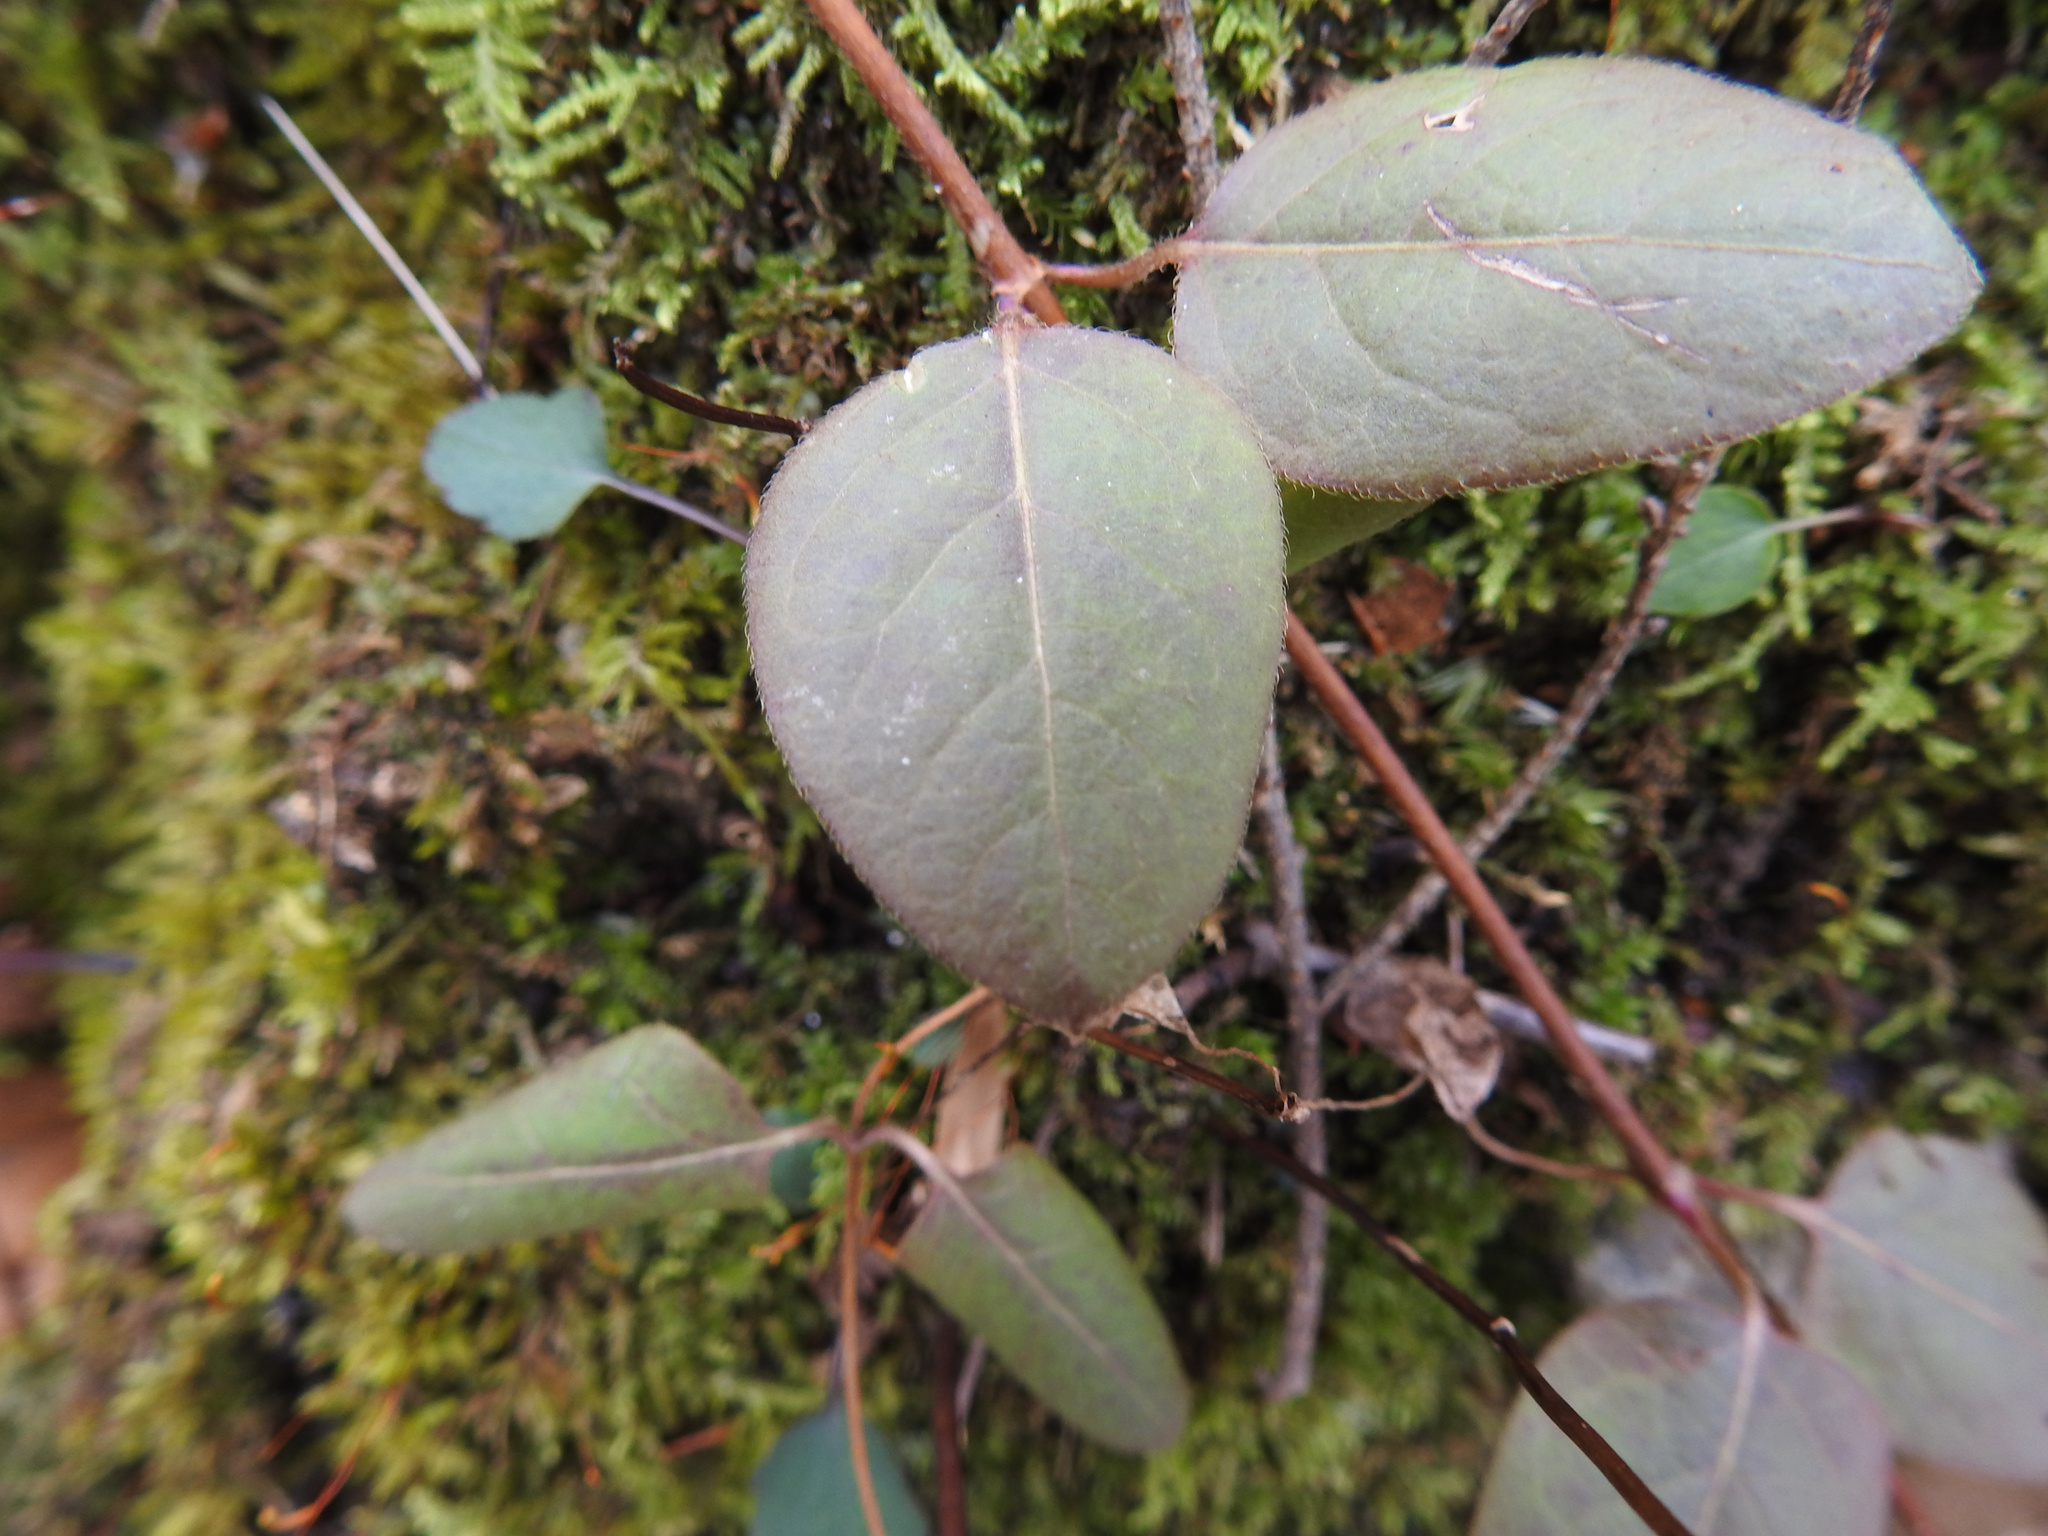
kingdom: Plantae
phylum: Tracheophyta
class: Magnoliopsida
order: Dipsacales
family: Caprifoliaceae
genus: Lonicera
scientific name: Lonicera japonica
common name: Japanese honeysuckle
